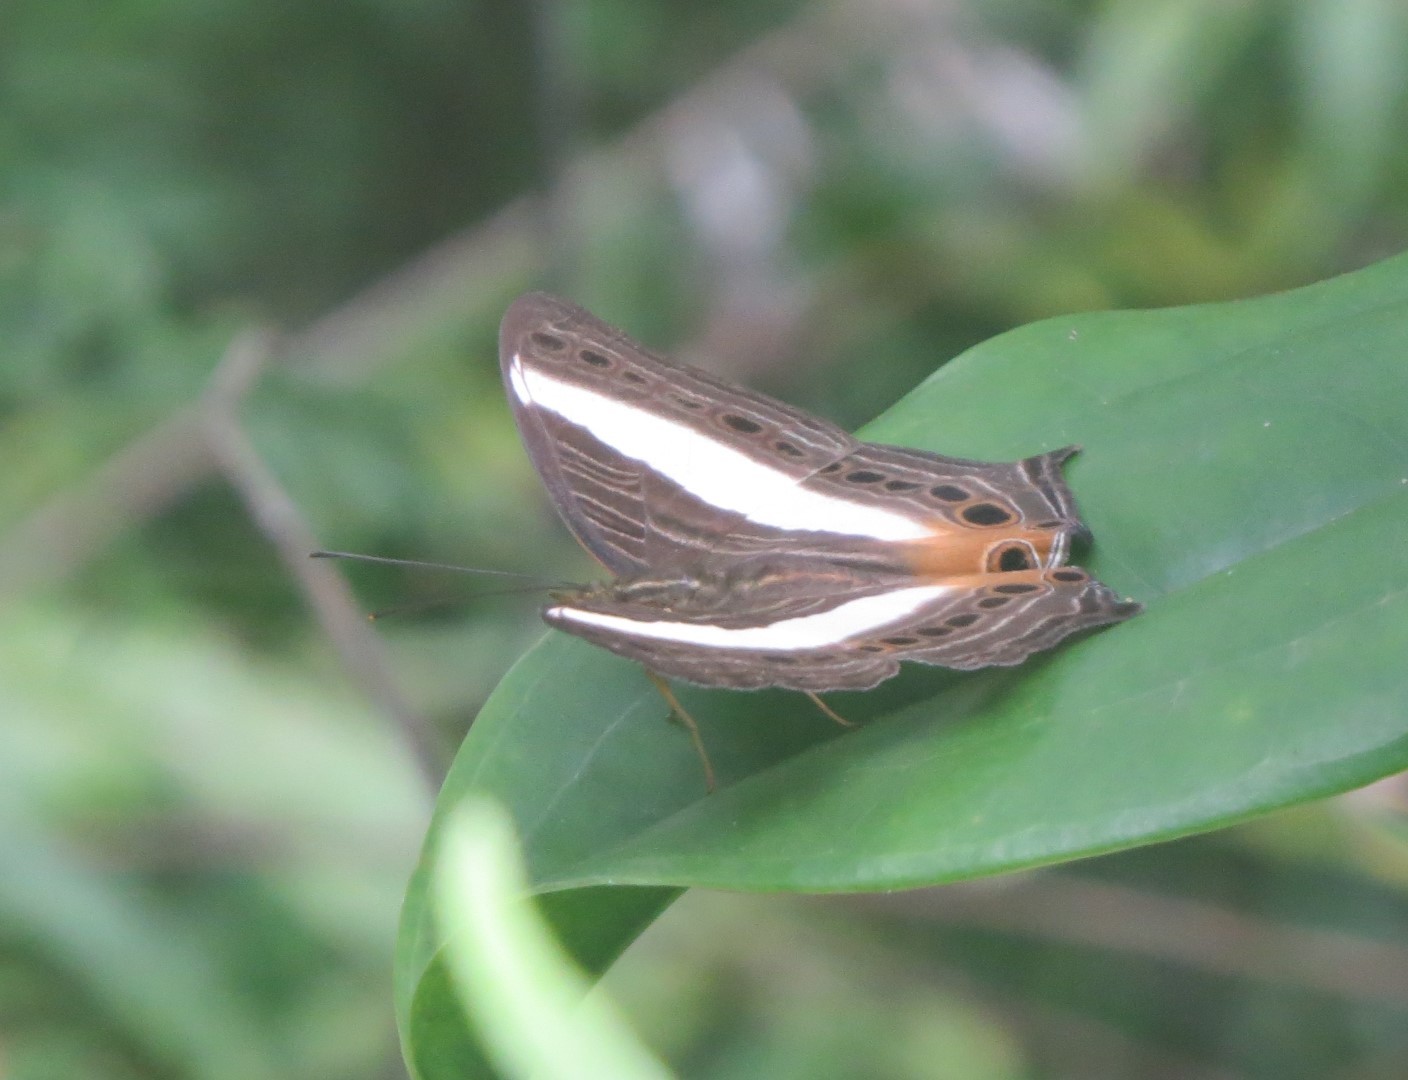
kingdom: Animalia
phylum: Arthropoda
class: Insecta
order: Lepidoptera
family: Nymphalidae
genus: Cyrestis
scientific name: Cyrestis acilia
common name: Godart's map butterfly
